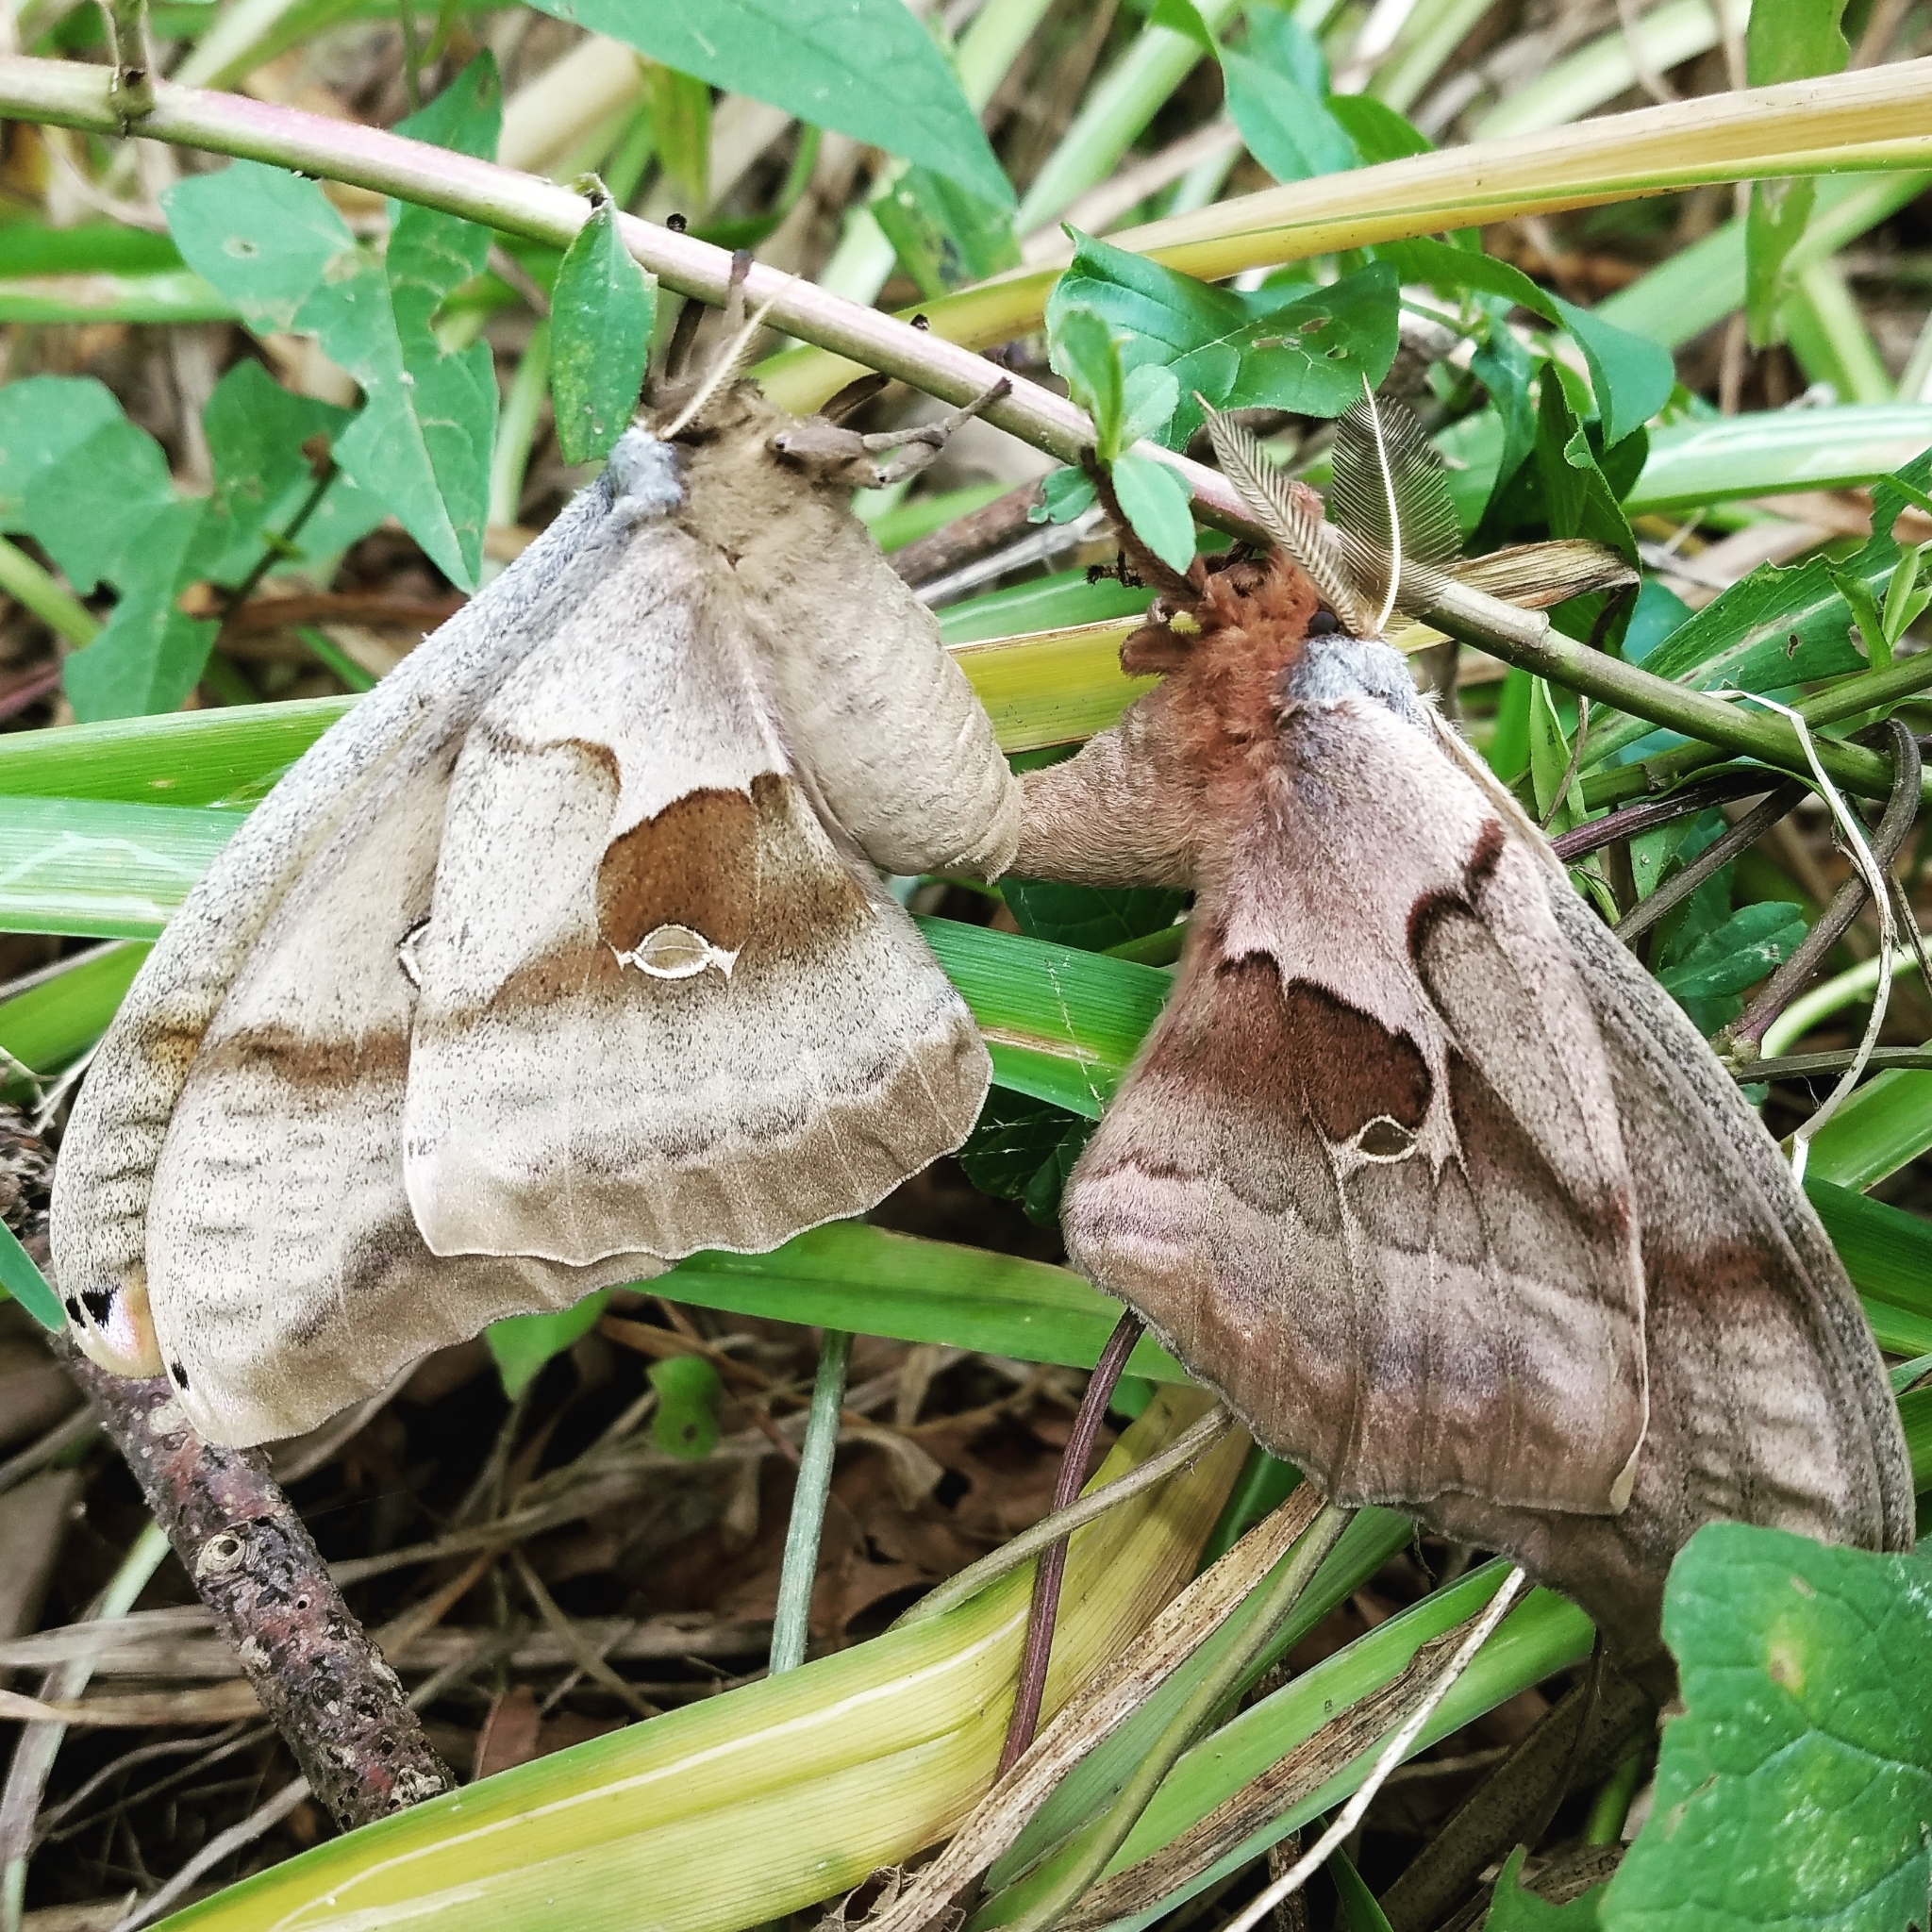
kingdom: Animalia
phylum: Arthropoda
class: Insecta
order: Lepidoptera
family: Saturniidae
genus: Antheraea
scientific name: Antheraea polyphemus
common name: Polyphemus moth
